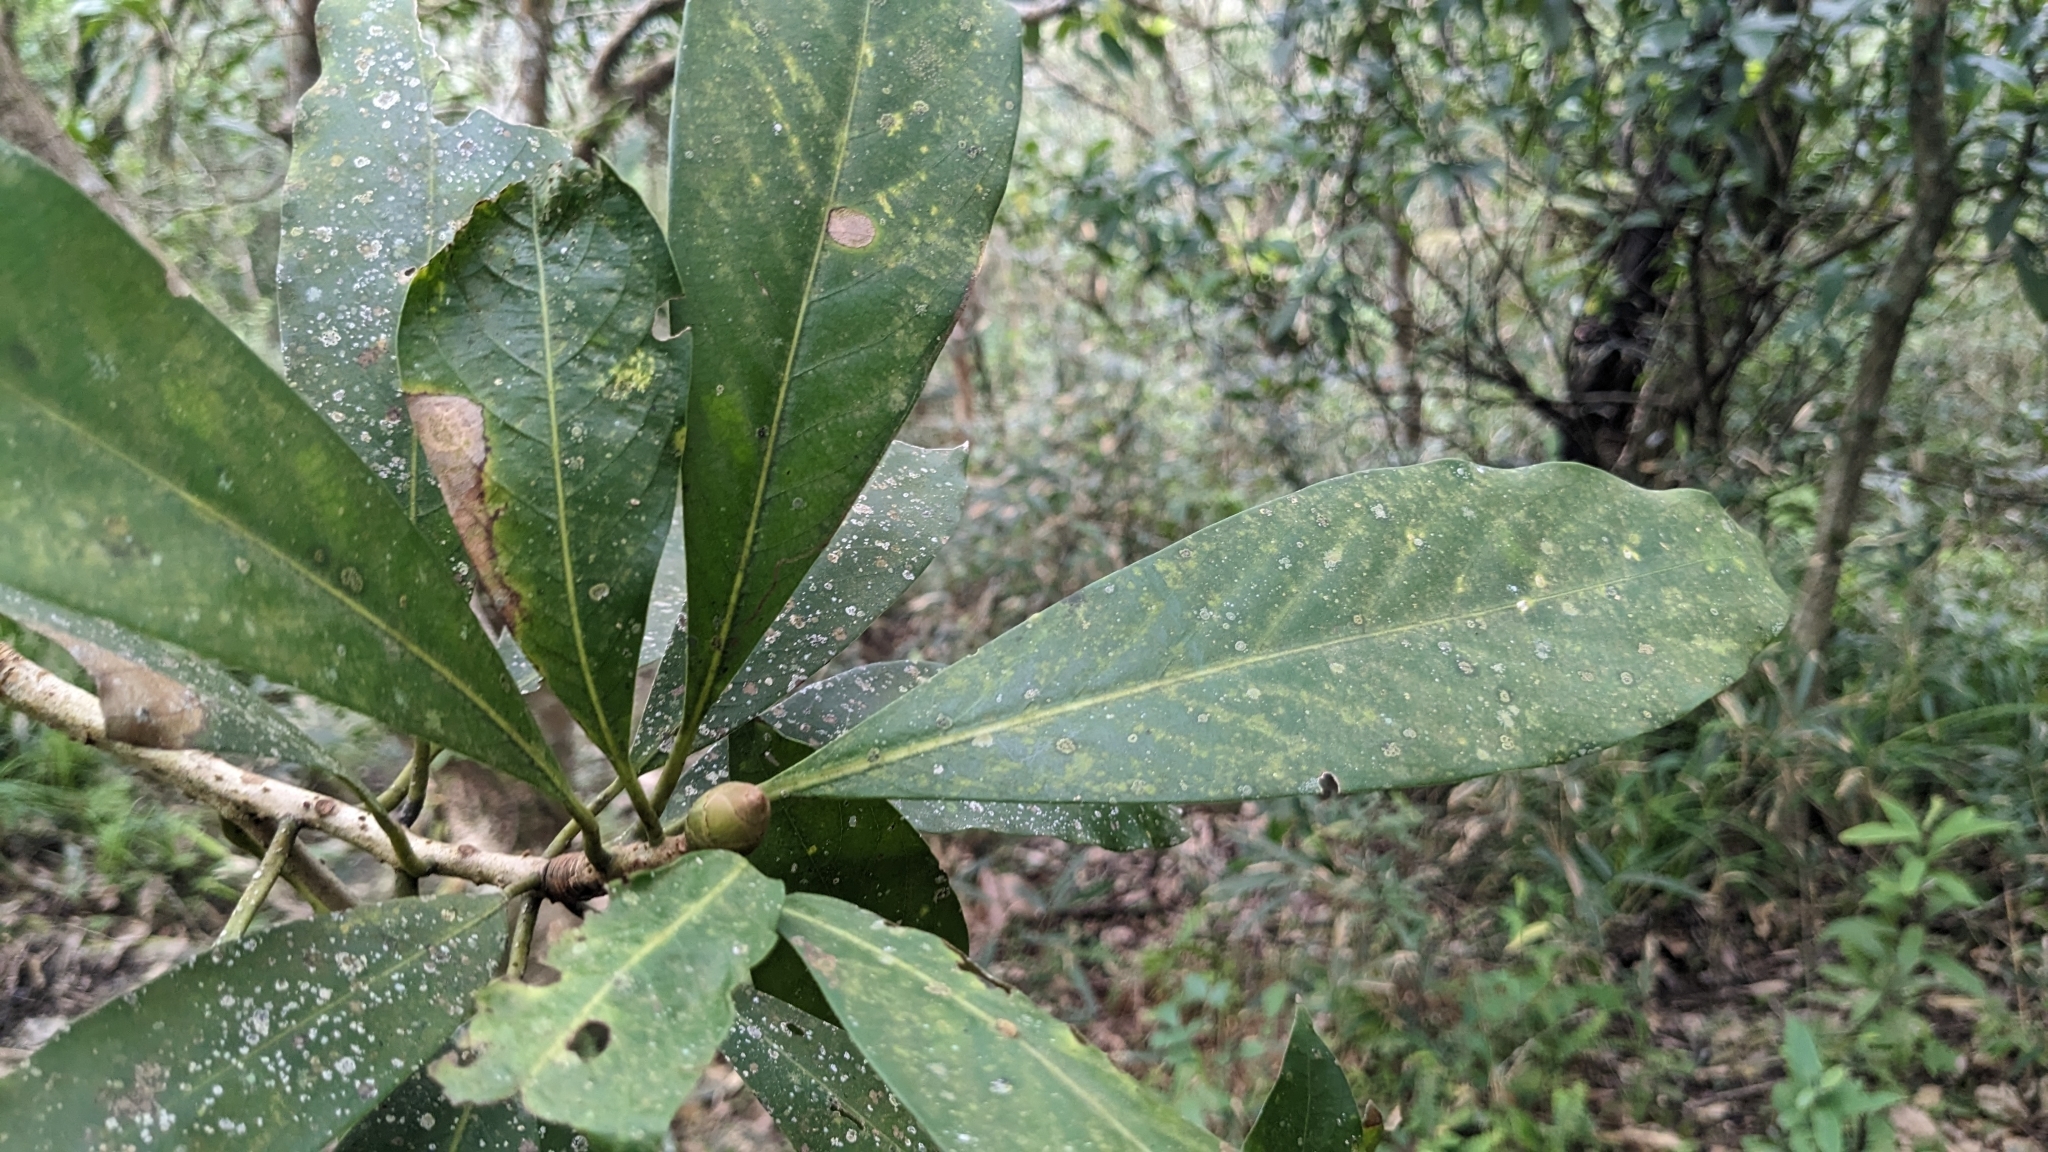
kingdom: Plantae
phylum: Tracheophyta
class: Magnoliopsida
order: Laurales
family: Lauraceae
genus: Machilus
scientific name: Machilus japonica
